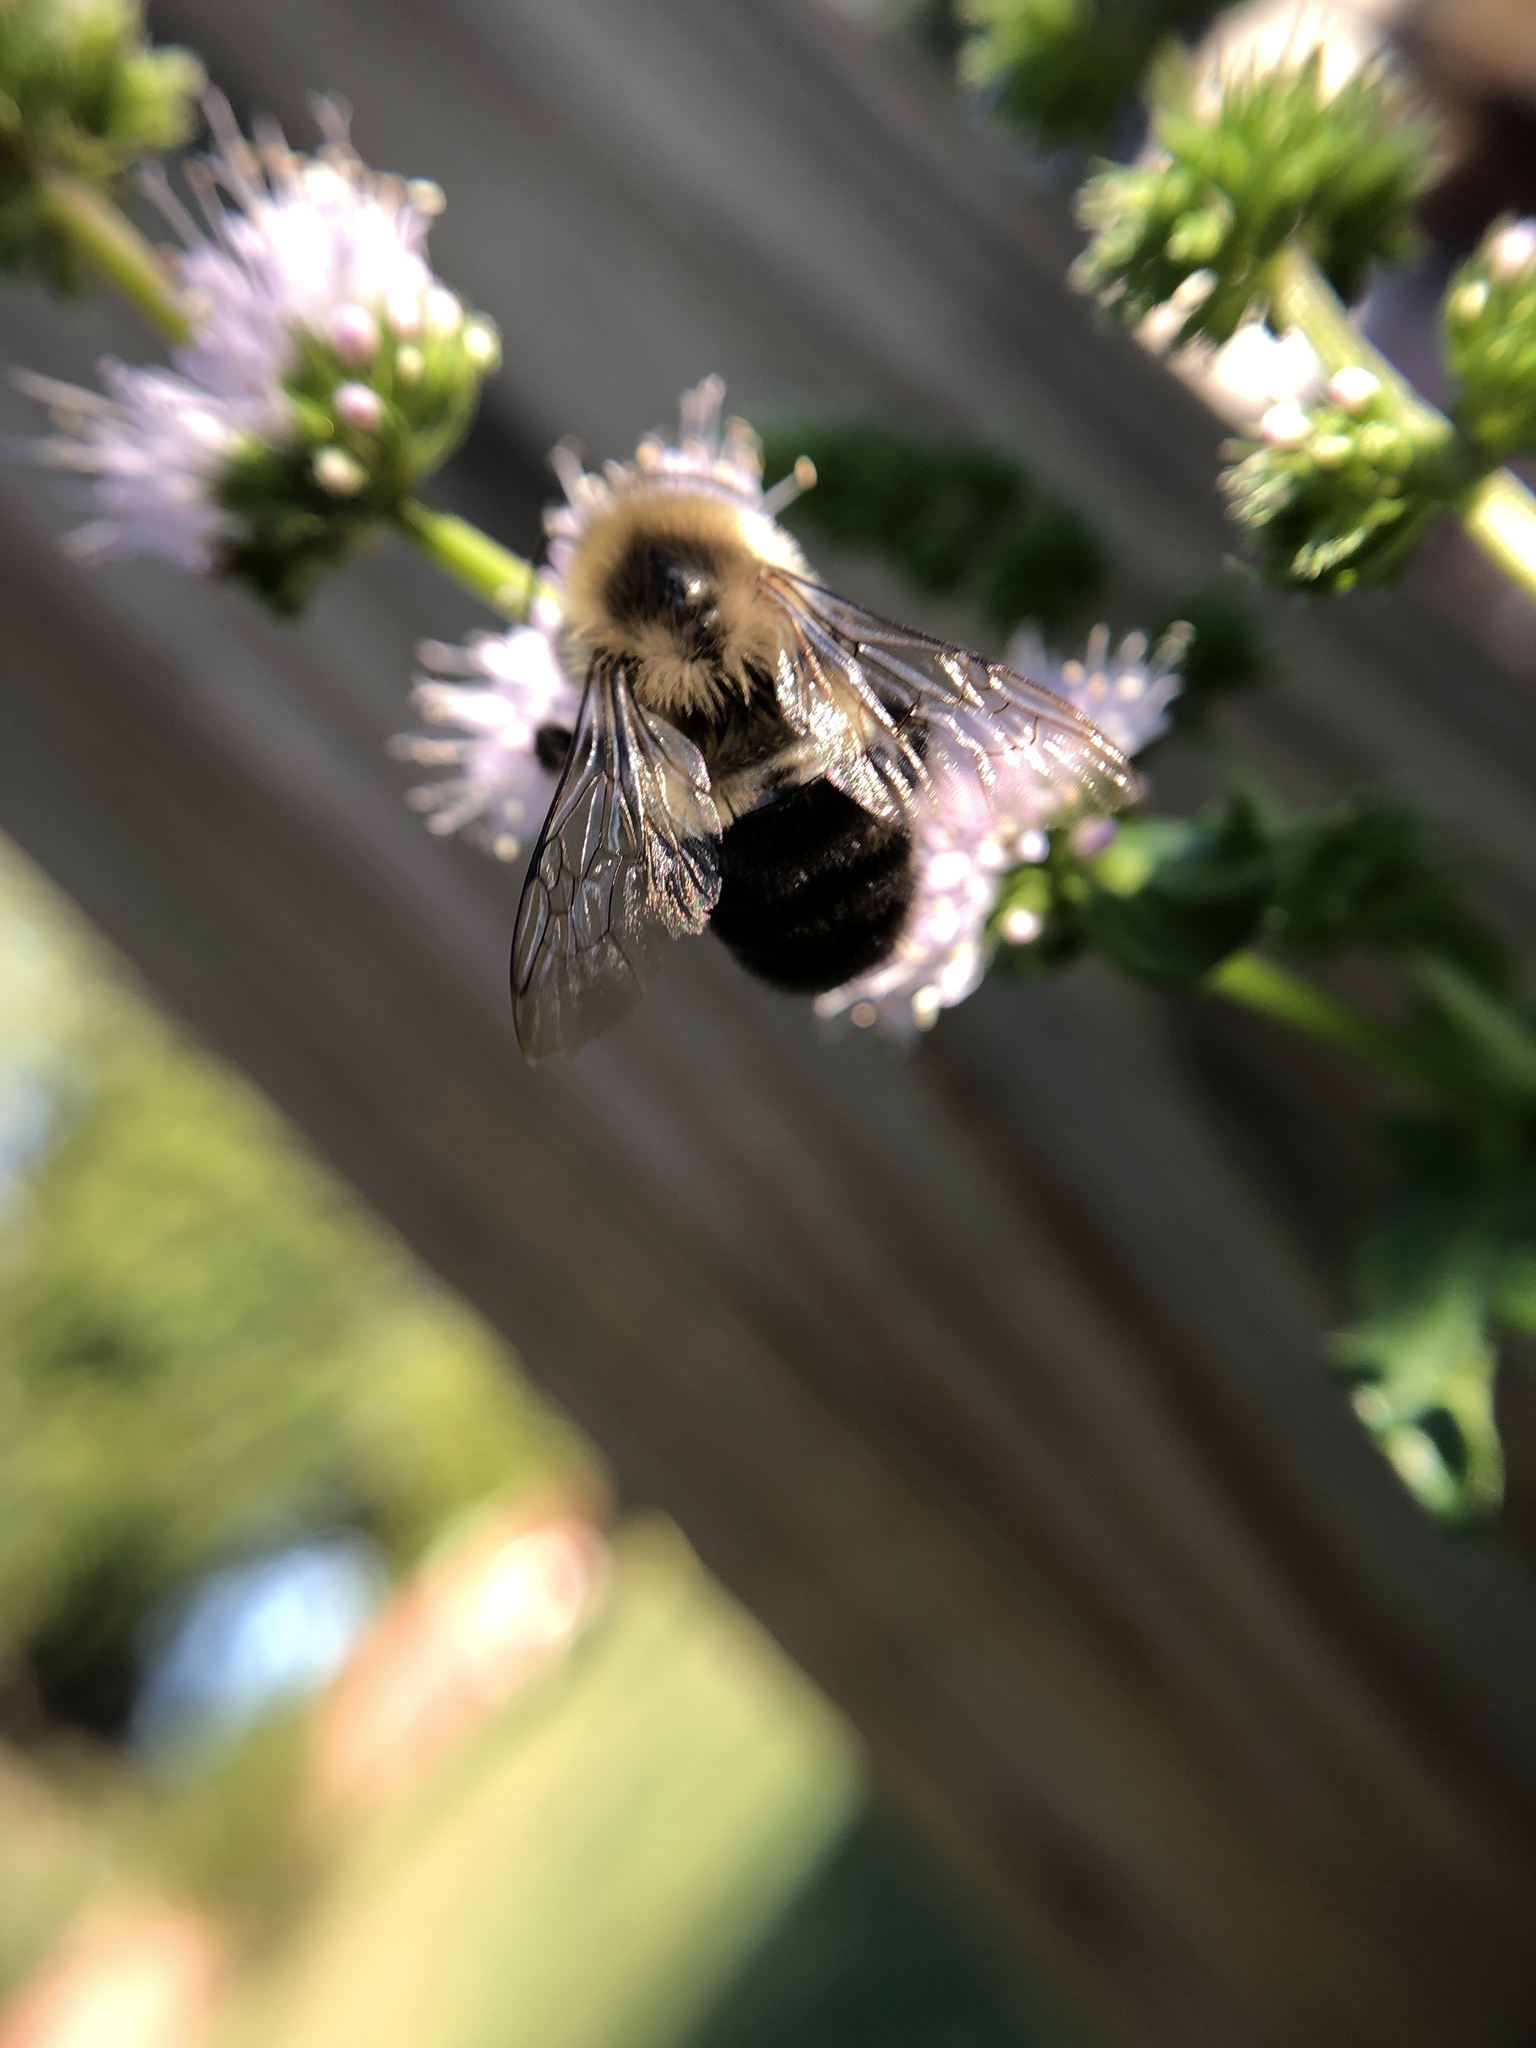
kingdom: Animalia
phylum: Arthropoda
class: Insecta
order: Hymenoptera
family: Apidae
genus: Bombus
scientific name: Bombus impatiens
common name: Common eastern bumble bee
